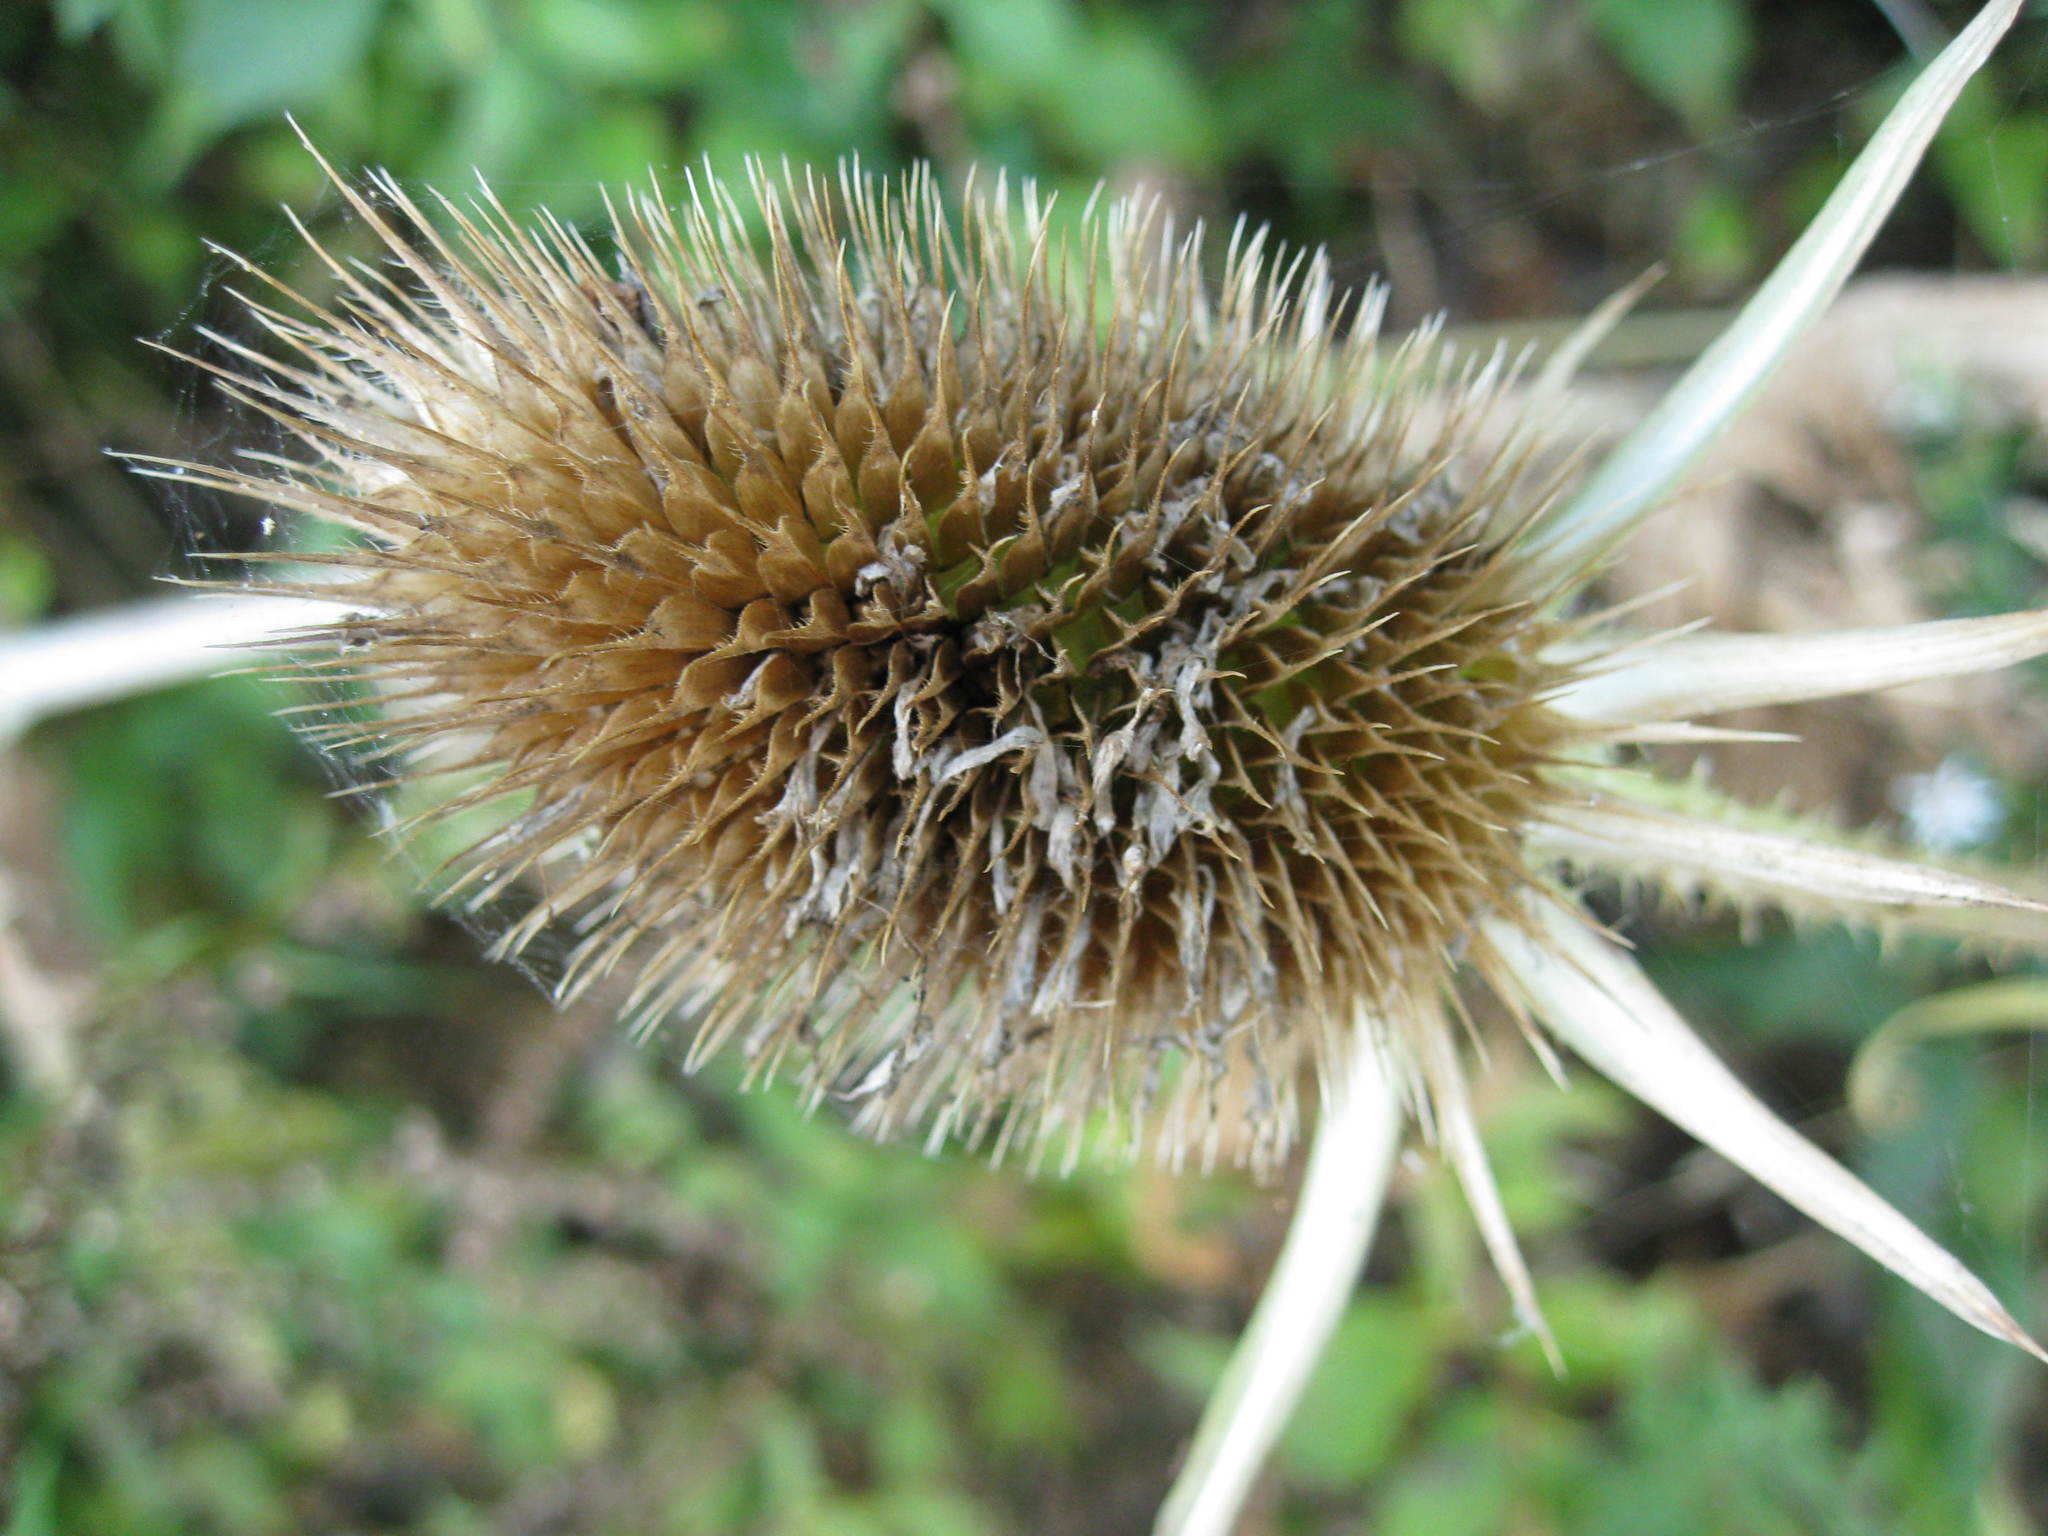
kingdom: Plantae
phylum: Tracheophyta
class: Magnoliopsida
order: Dipsacales
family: Caprifoliaceae
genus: Dipsacus
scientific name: Dipsacus laciniatus
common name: Cut-leaved teasel
